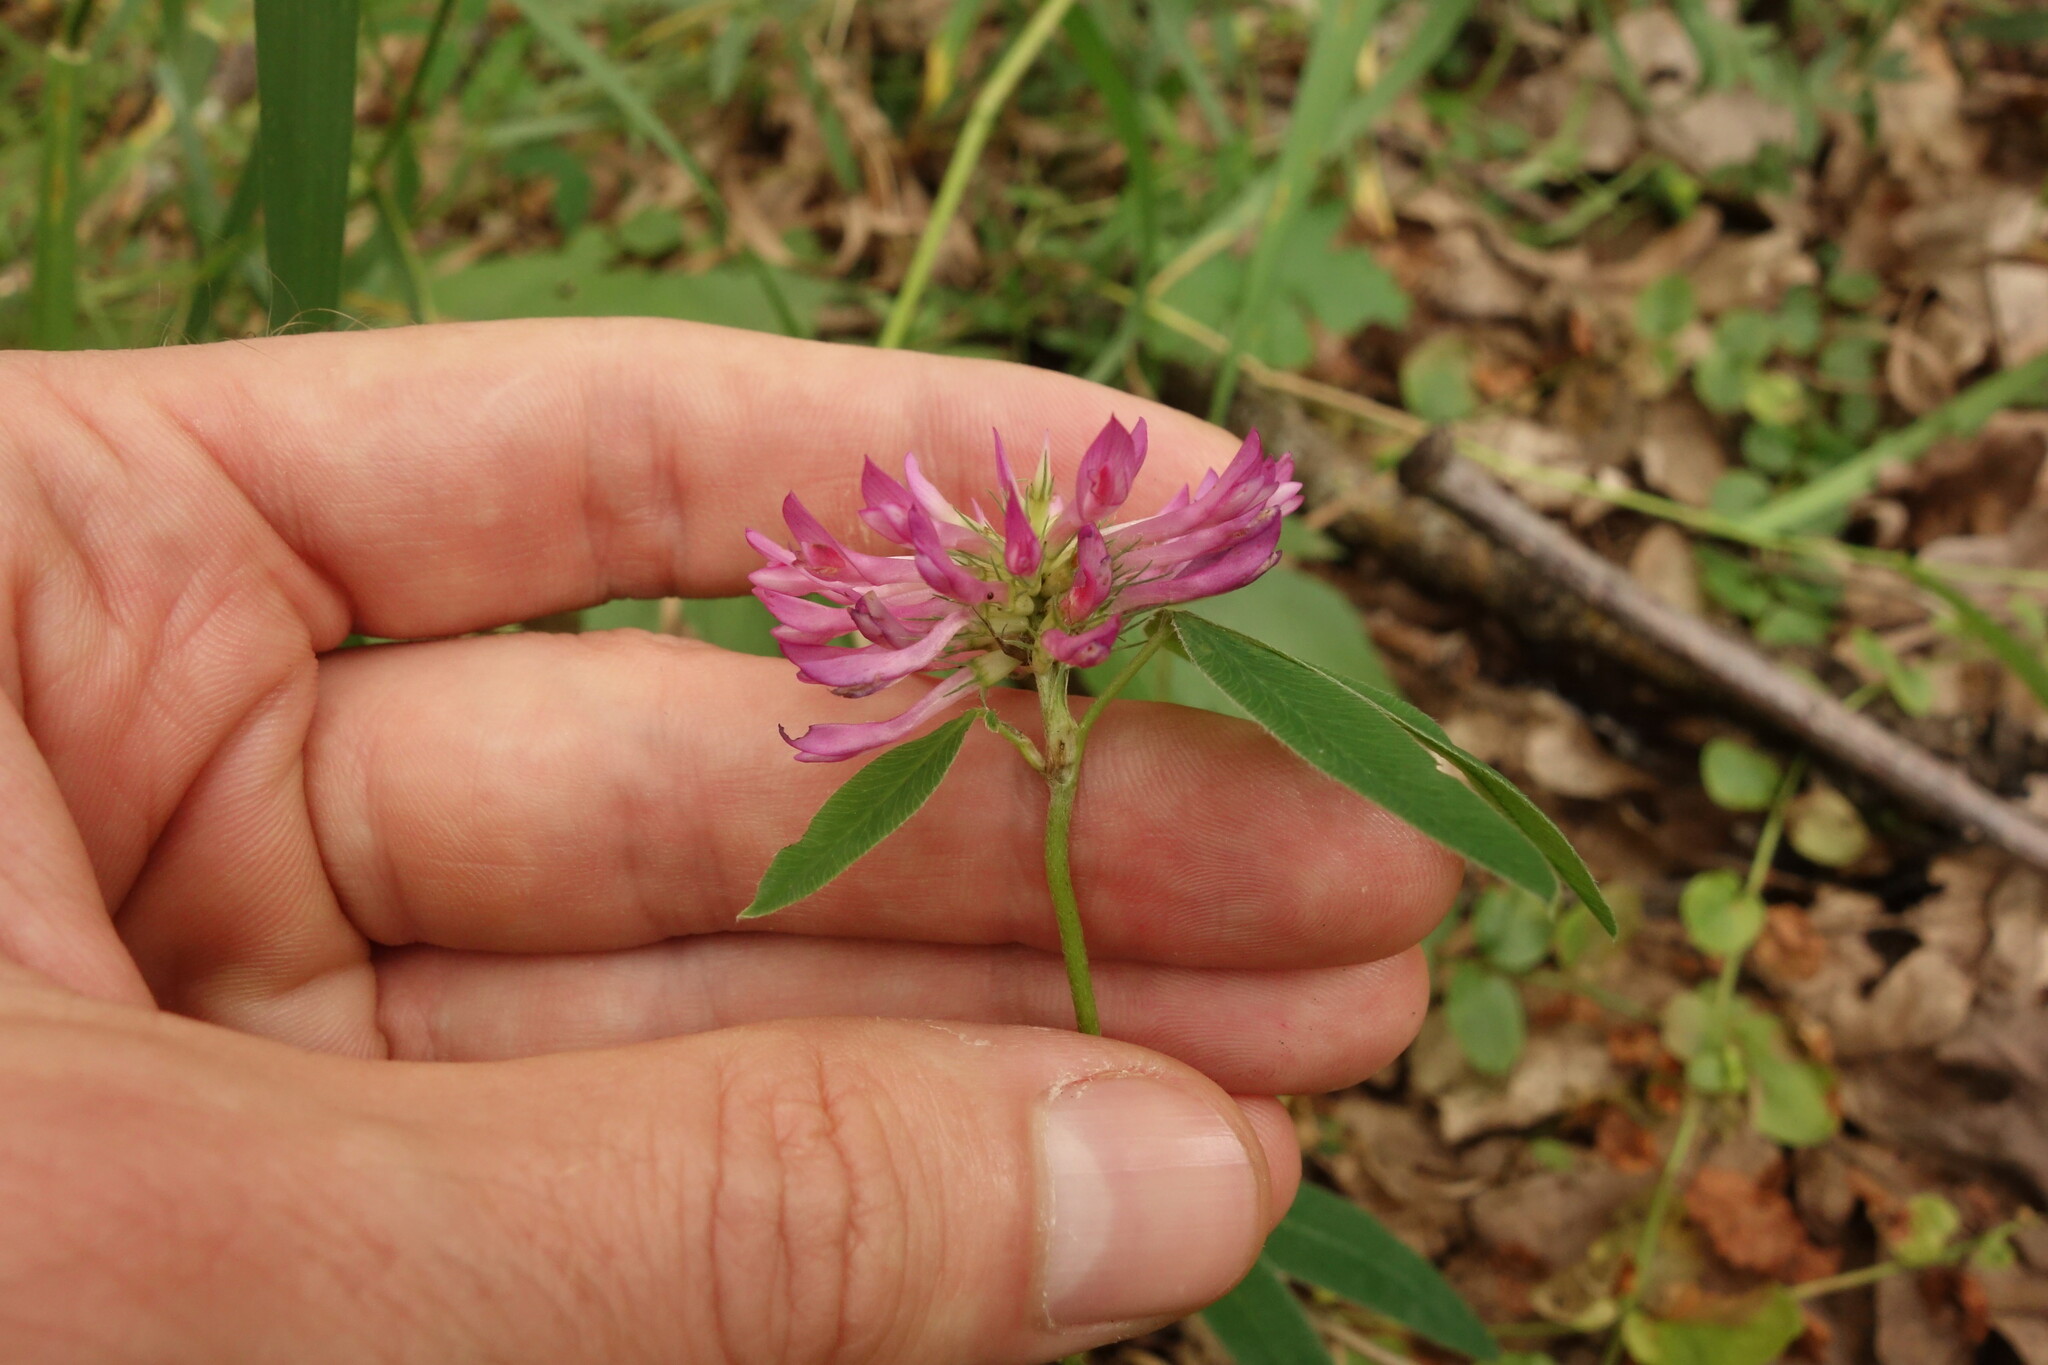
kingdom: Plantae
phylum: Tracheophyta
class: Magnoliopsida
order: Fabales
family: Fabaceae
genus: Trifolium
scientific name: Trifolium medium
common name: Zigzag clover
